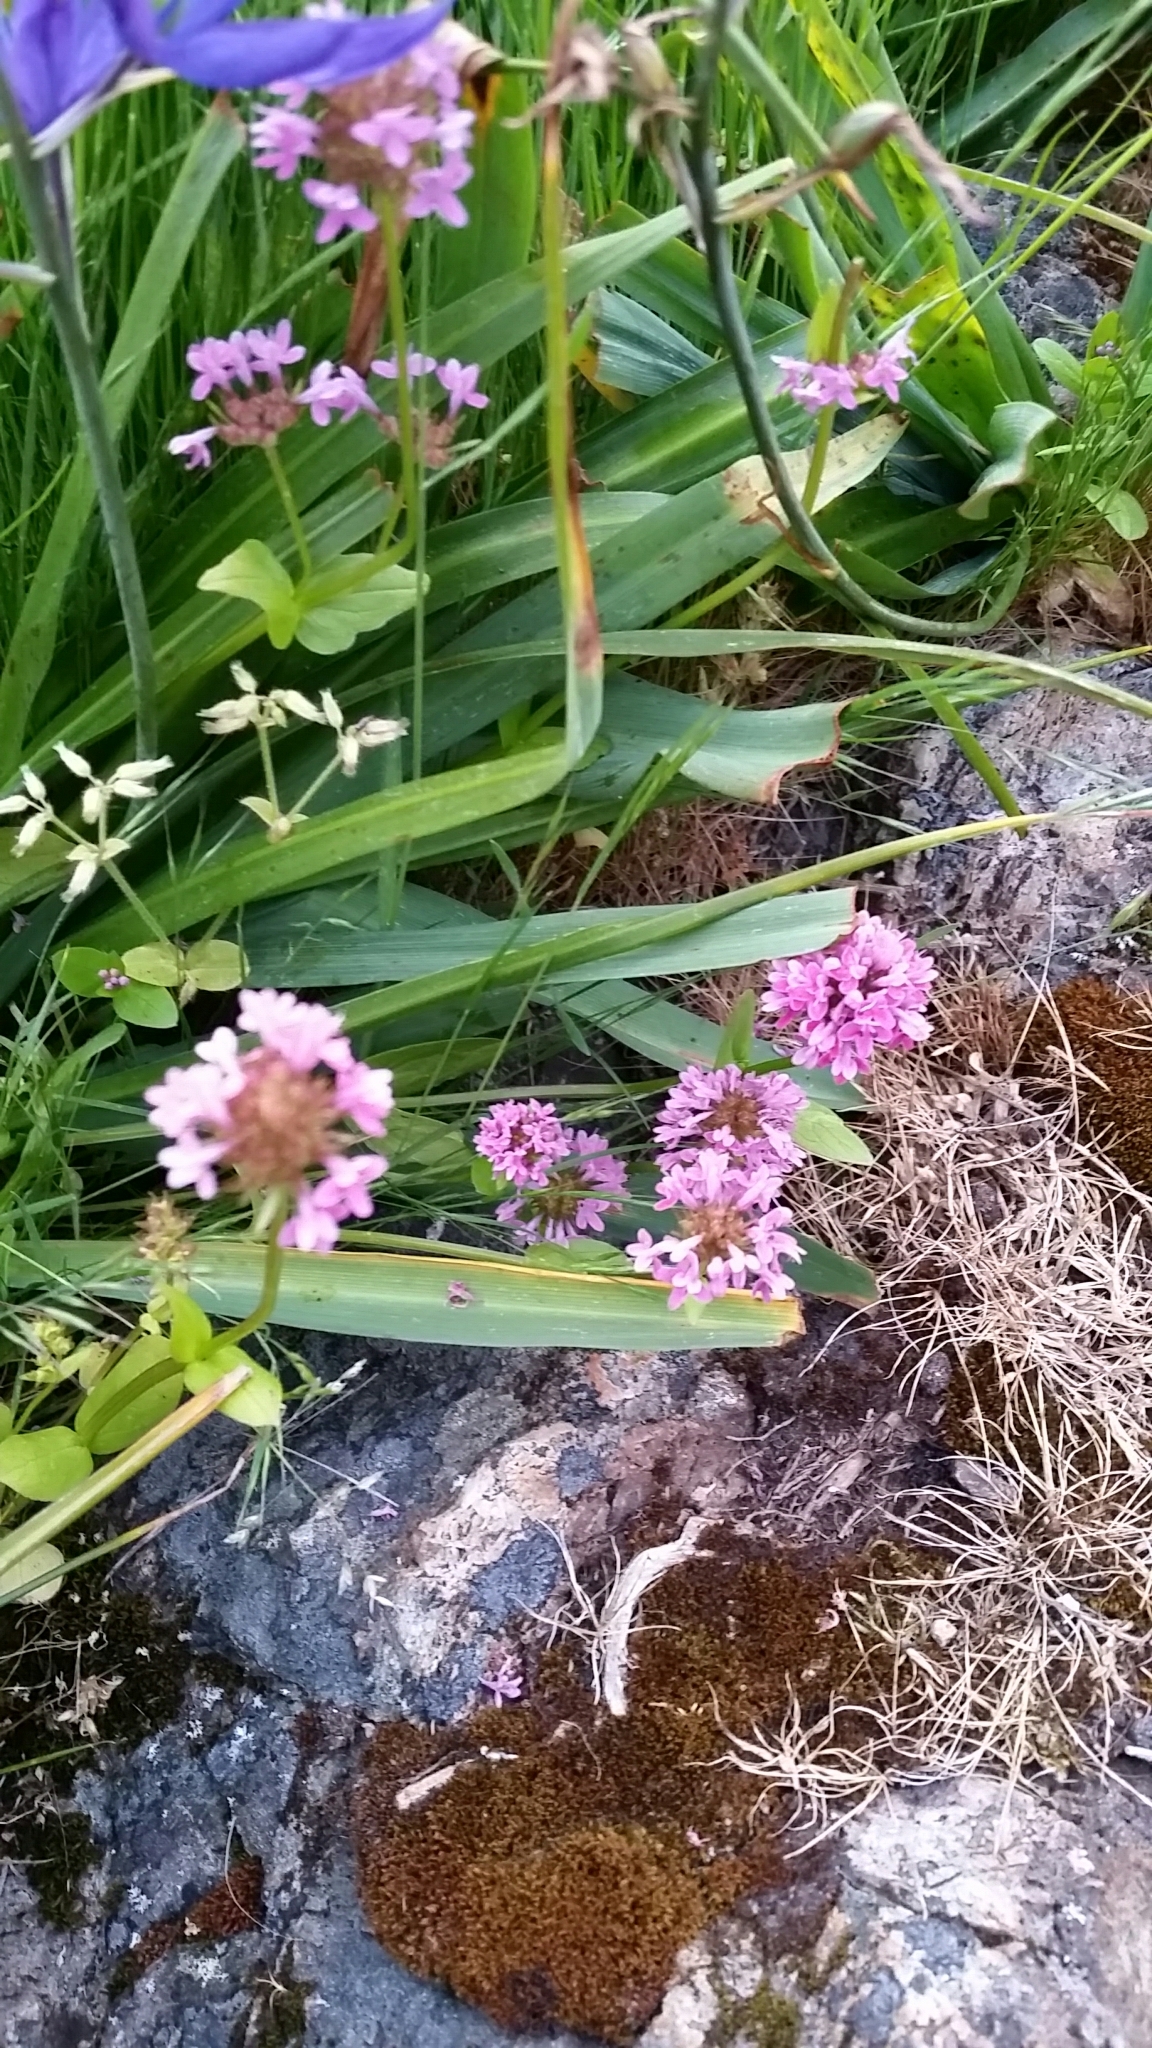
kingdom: Plantae
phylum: Tracheophyta
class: Magnoliopsida
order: Dipsacales
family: Caprifoliaceae
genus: Plectritis
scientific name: Plectritis congesta
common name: Pink plectritis
